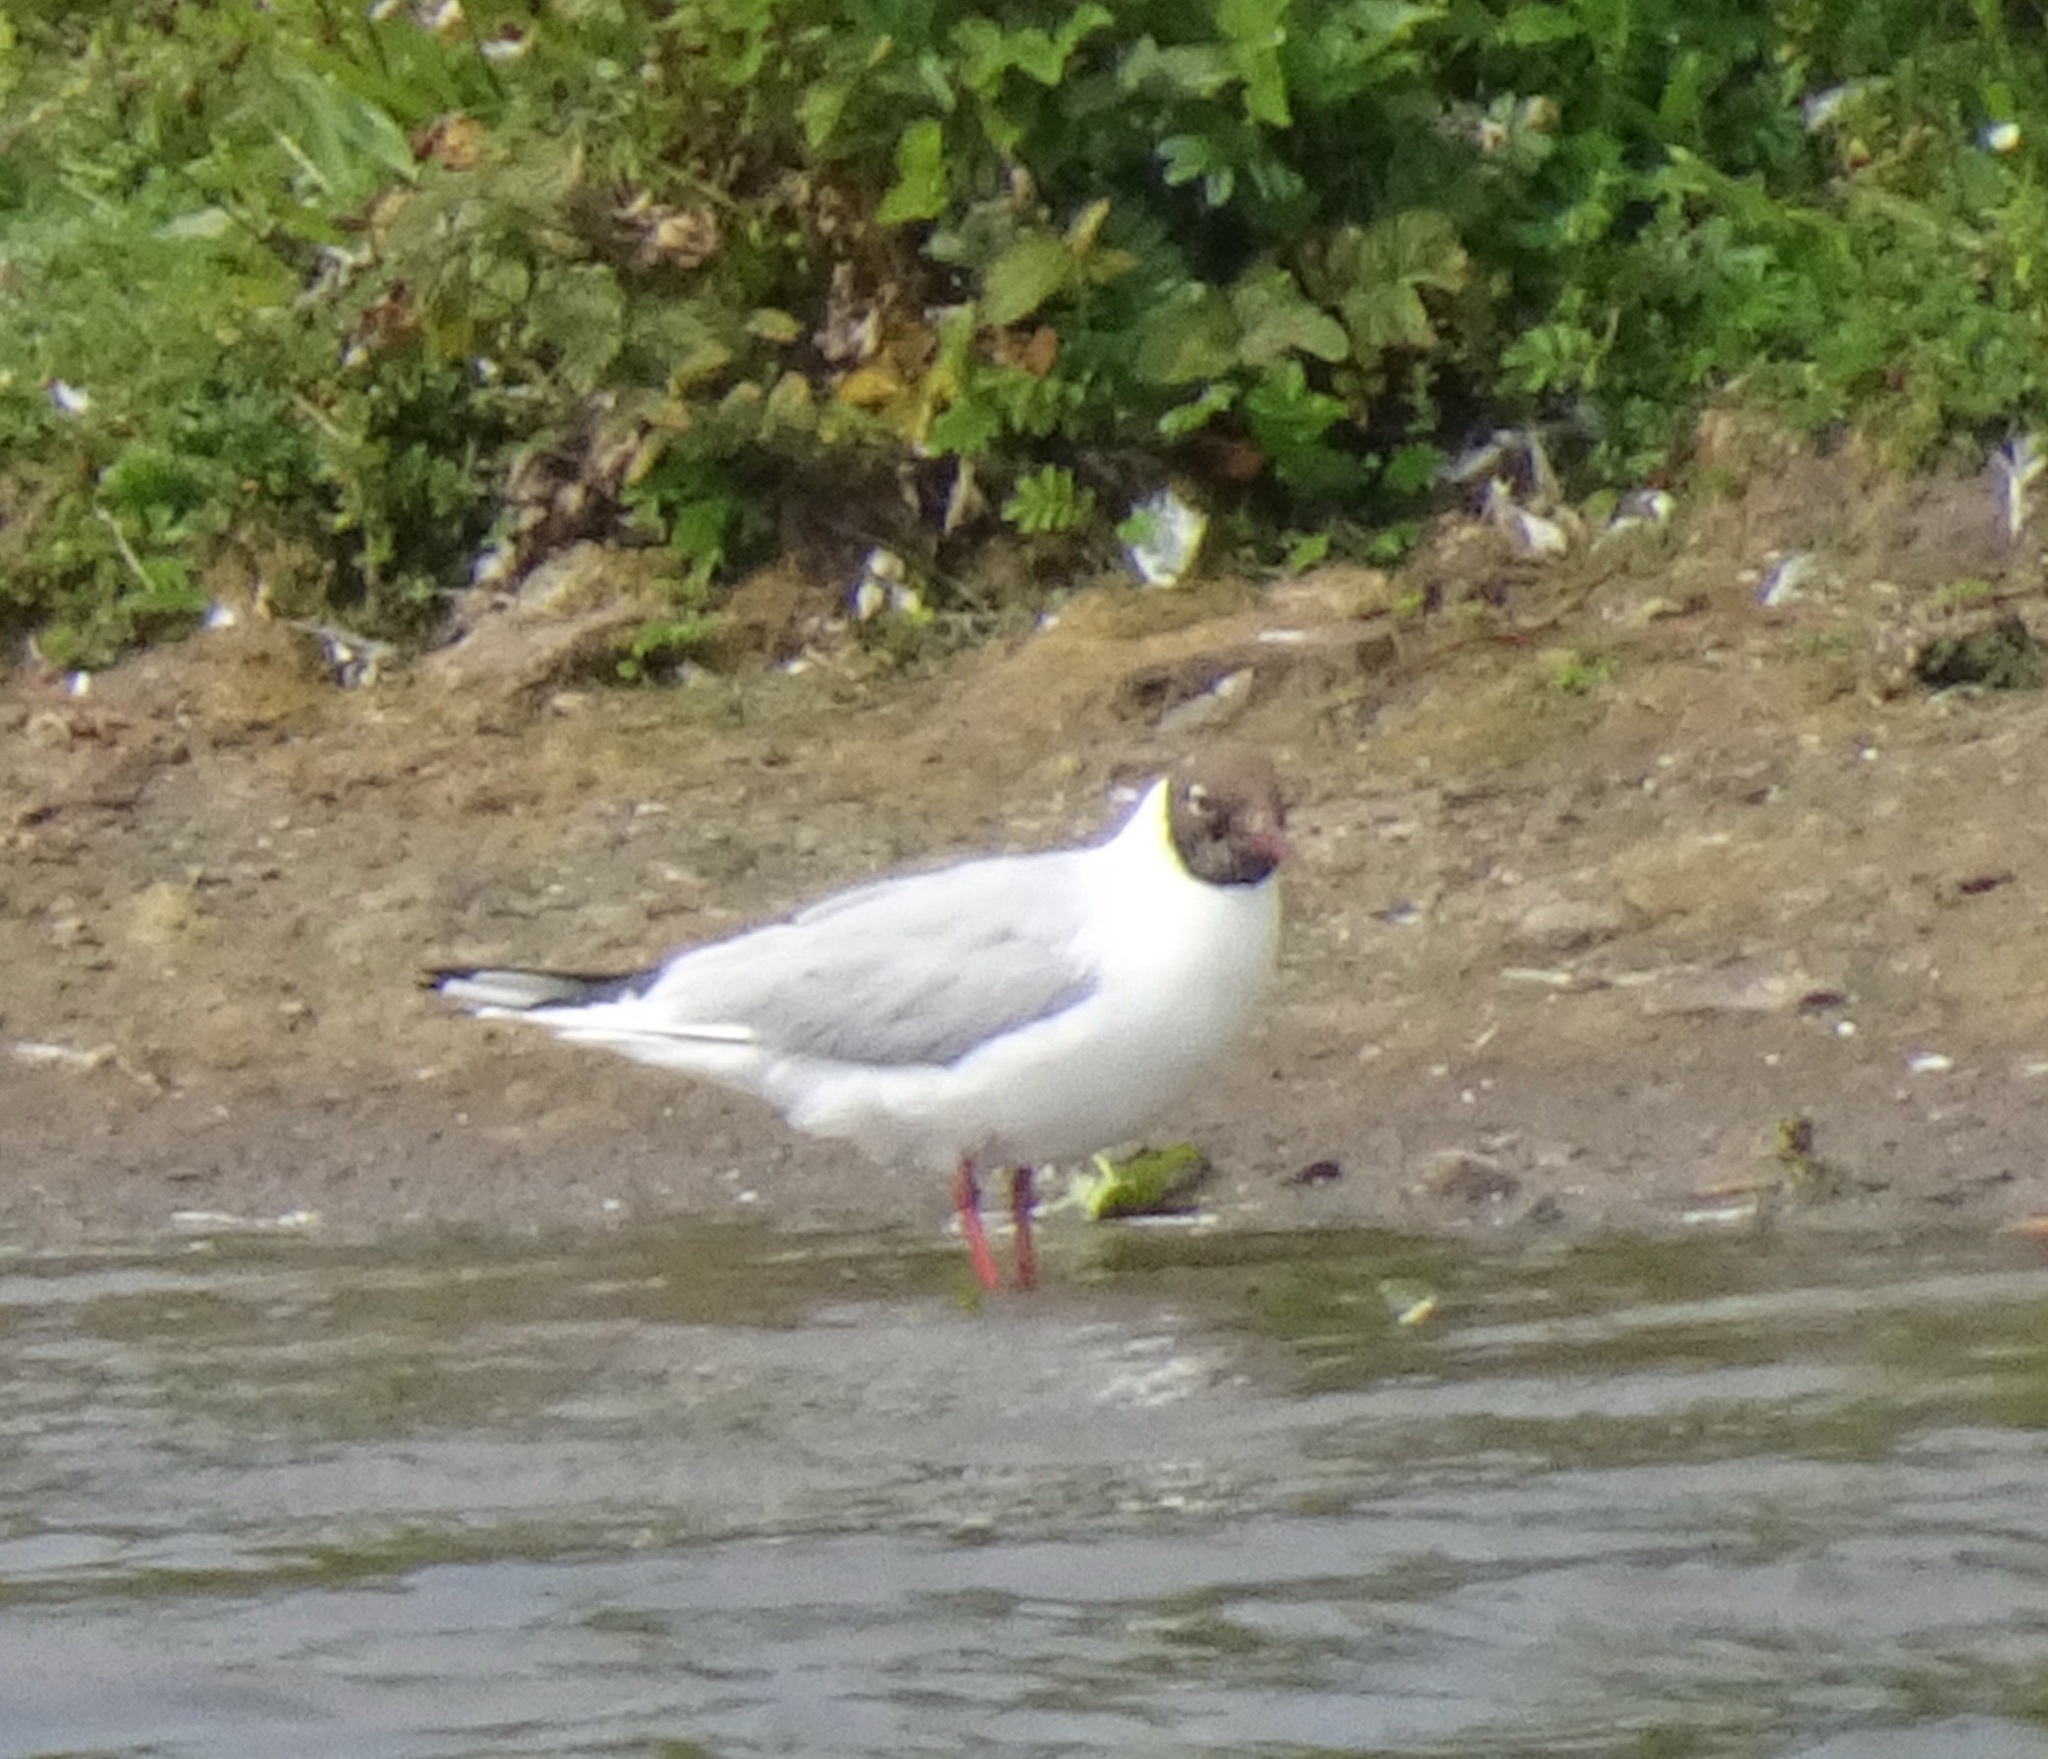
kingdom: Animalia
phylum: Chordata
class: Aves
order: Charadriiformes
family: Laridae
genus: Chroicocephalus
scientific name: Chroicocephalus ridibundus
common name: Black-headed gull
